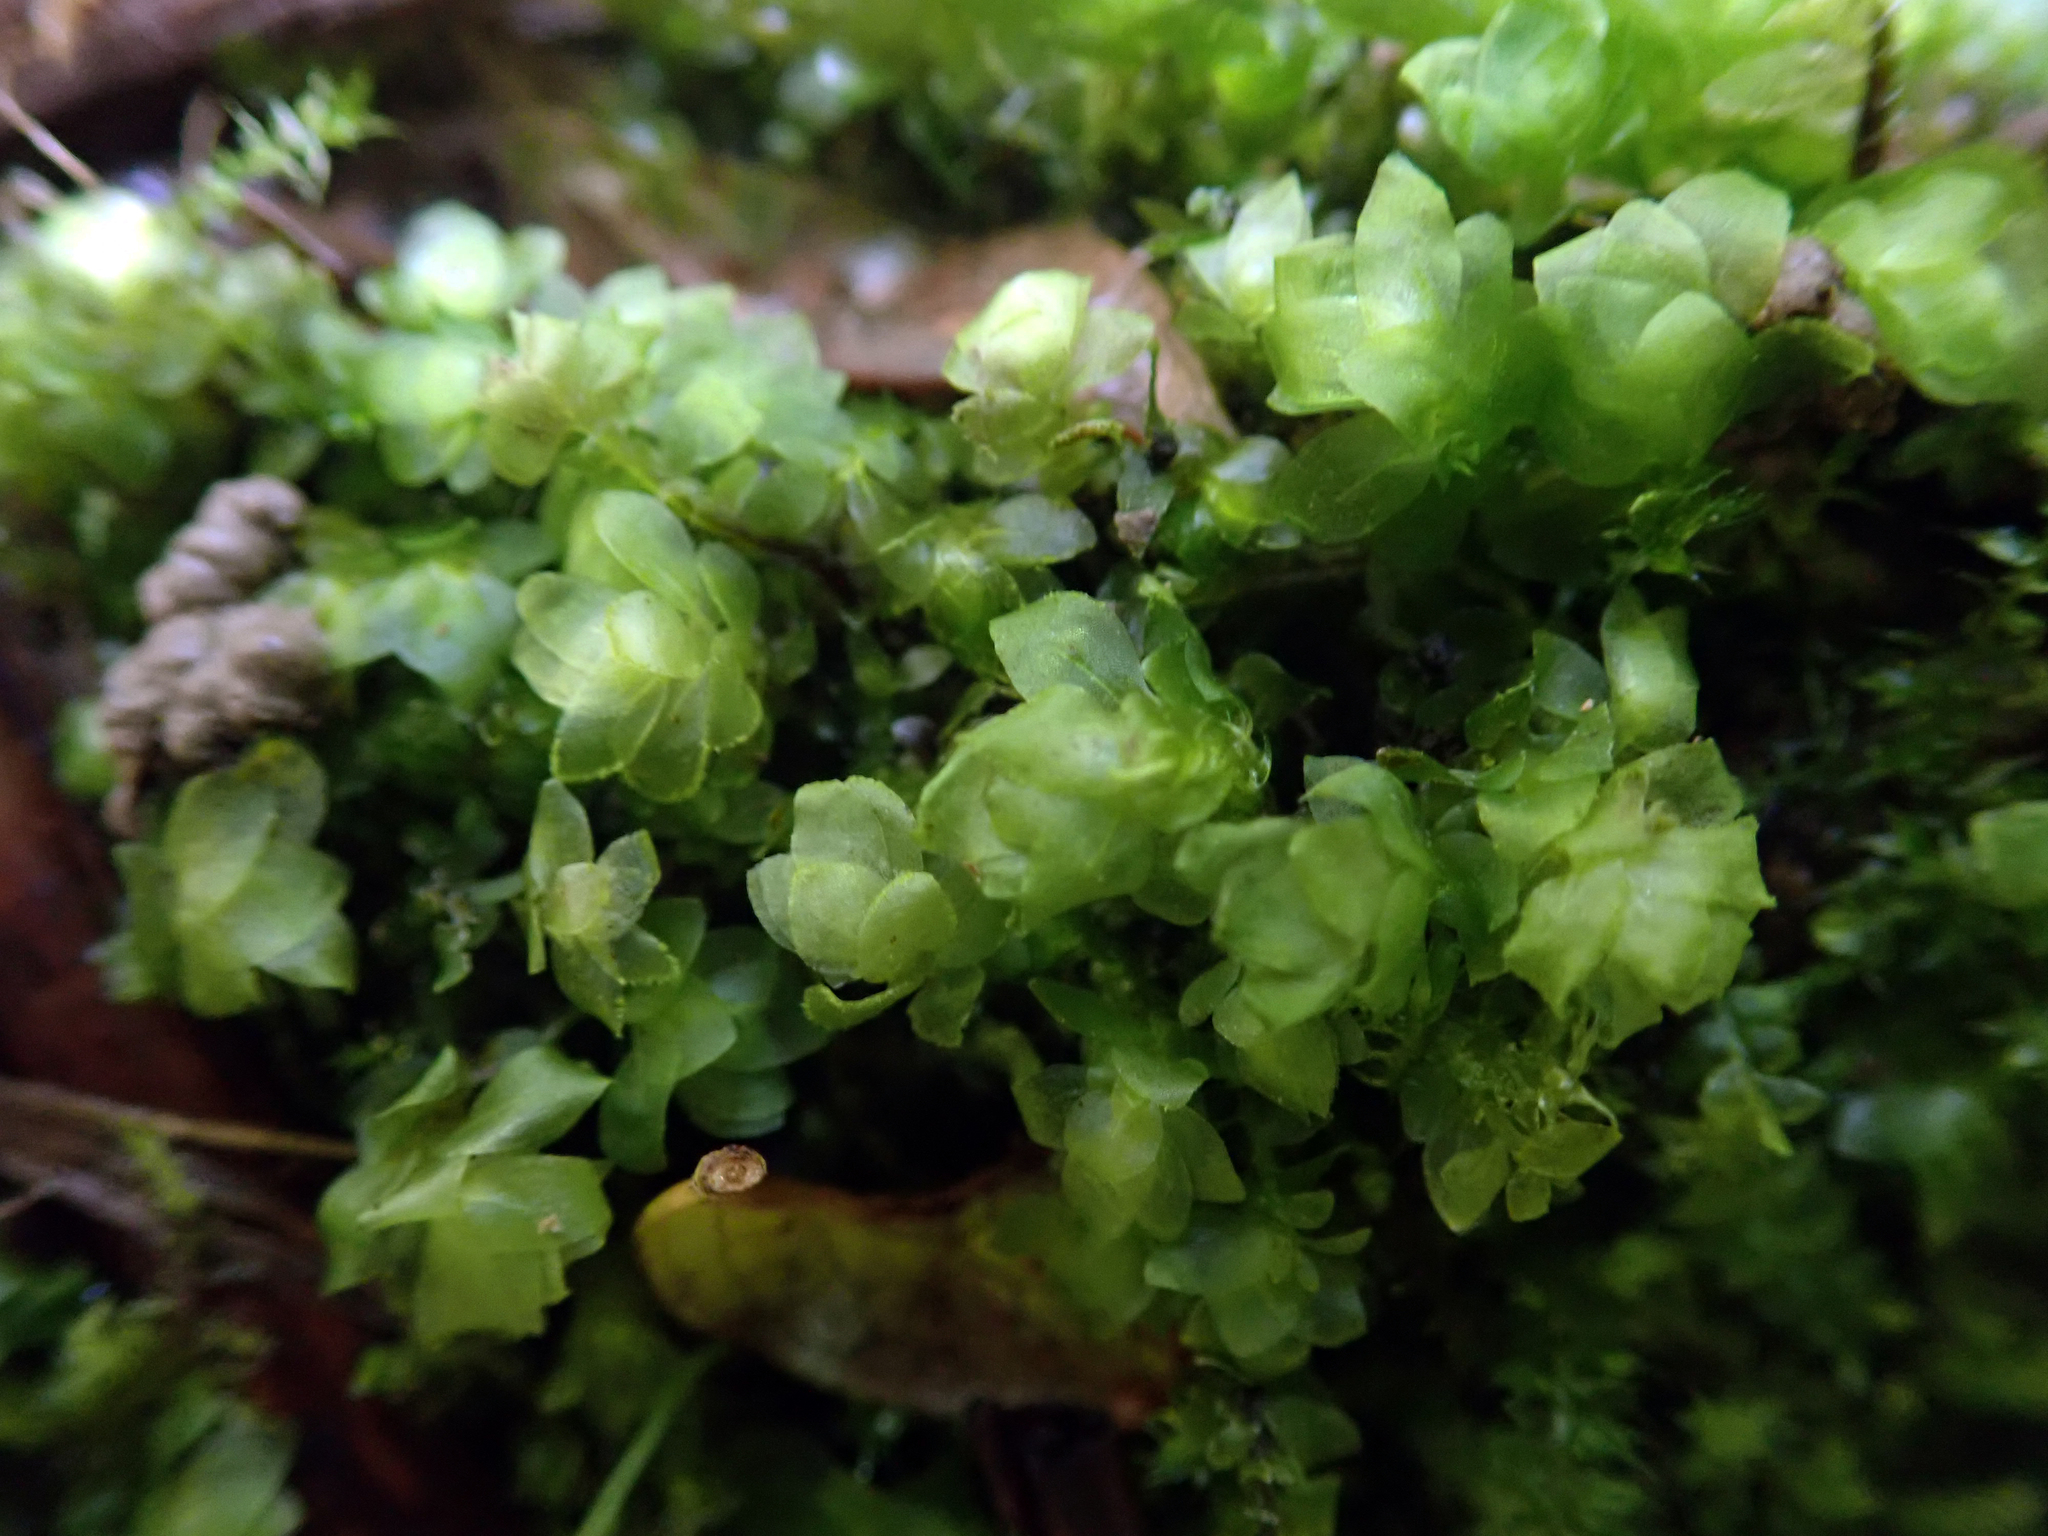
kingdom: Plantae
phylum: Bryophyta
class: Bryopsida
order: Hookeriales
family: Daltoniaceae
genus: Achrophyllum
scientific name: Achrophyllum dentatum
